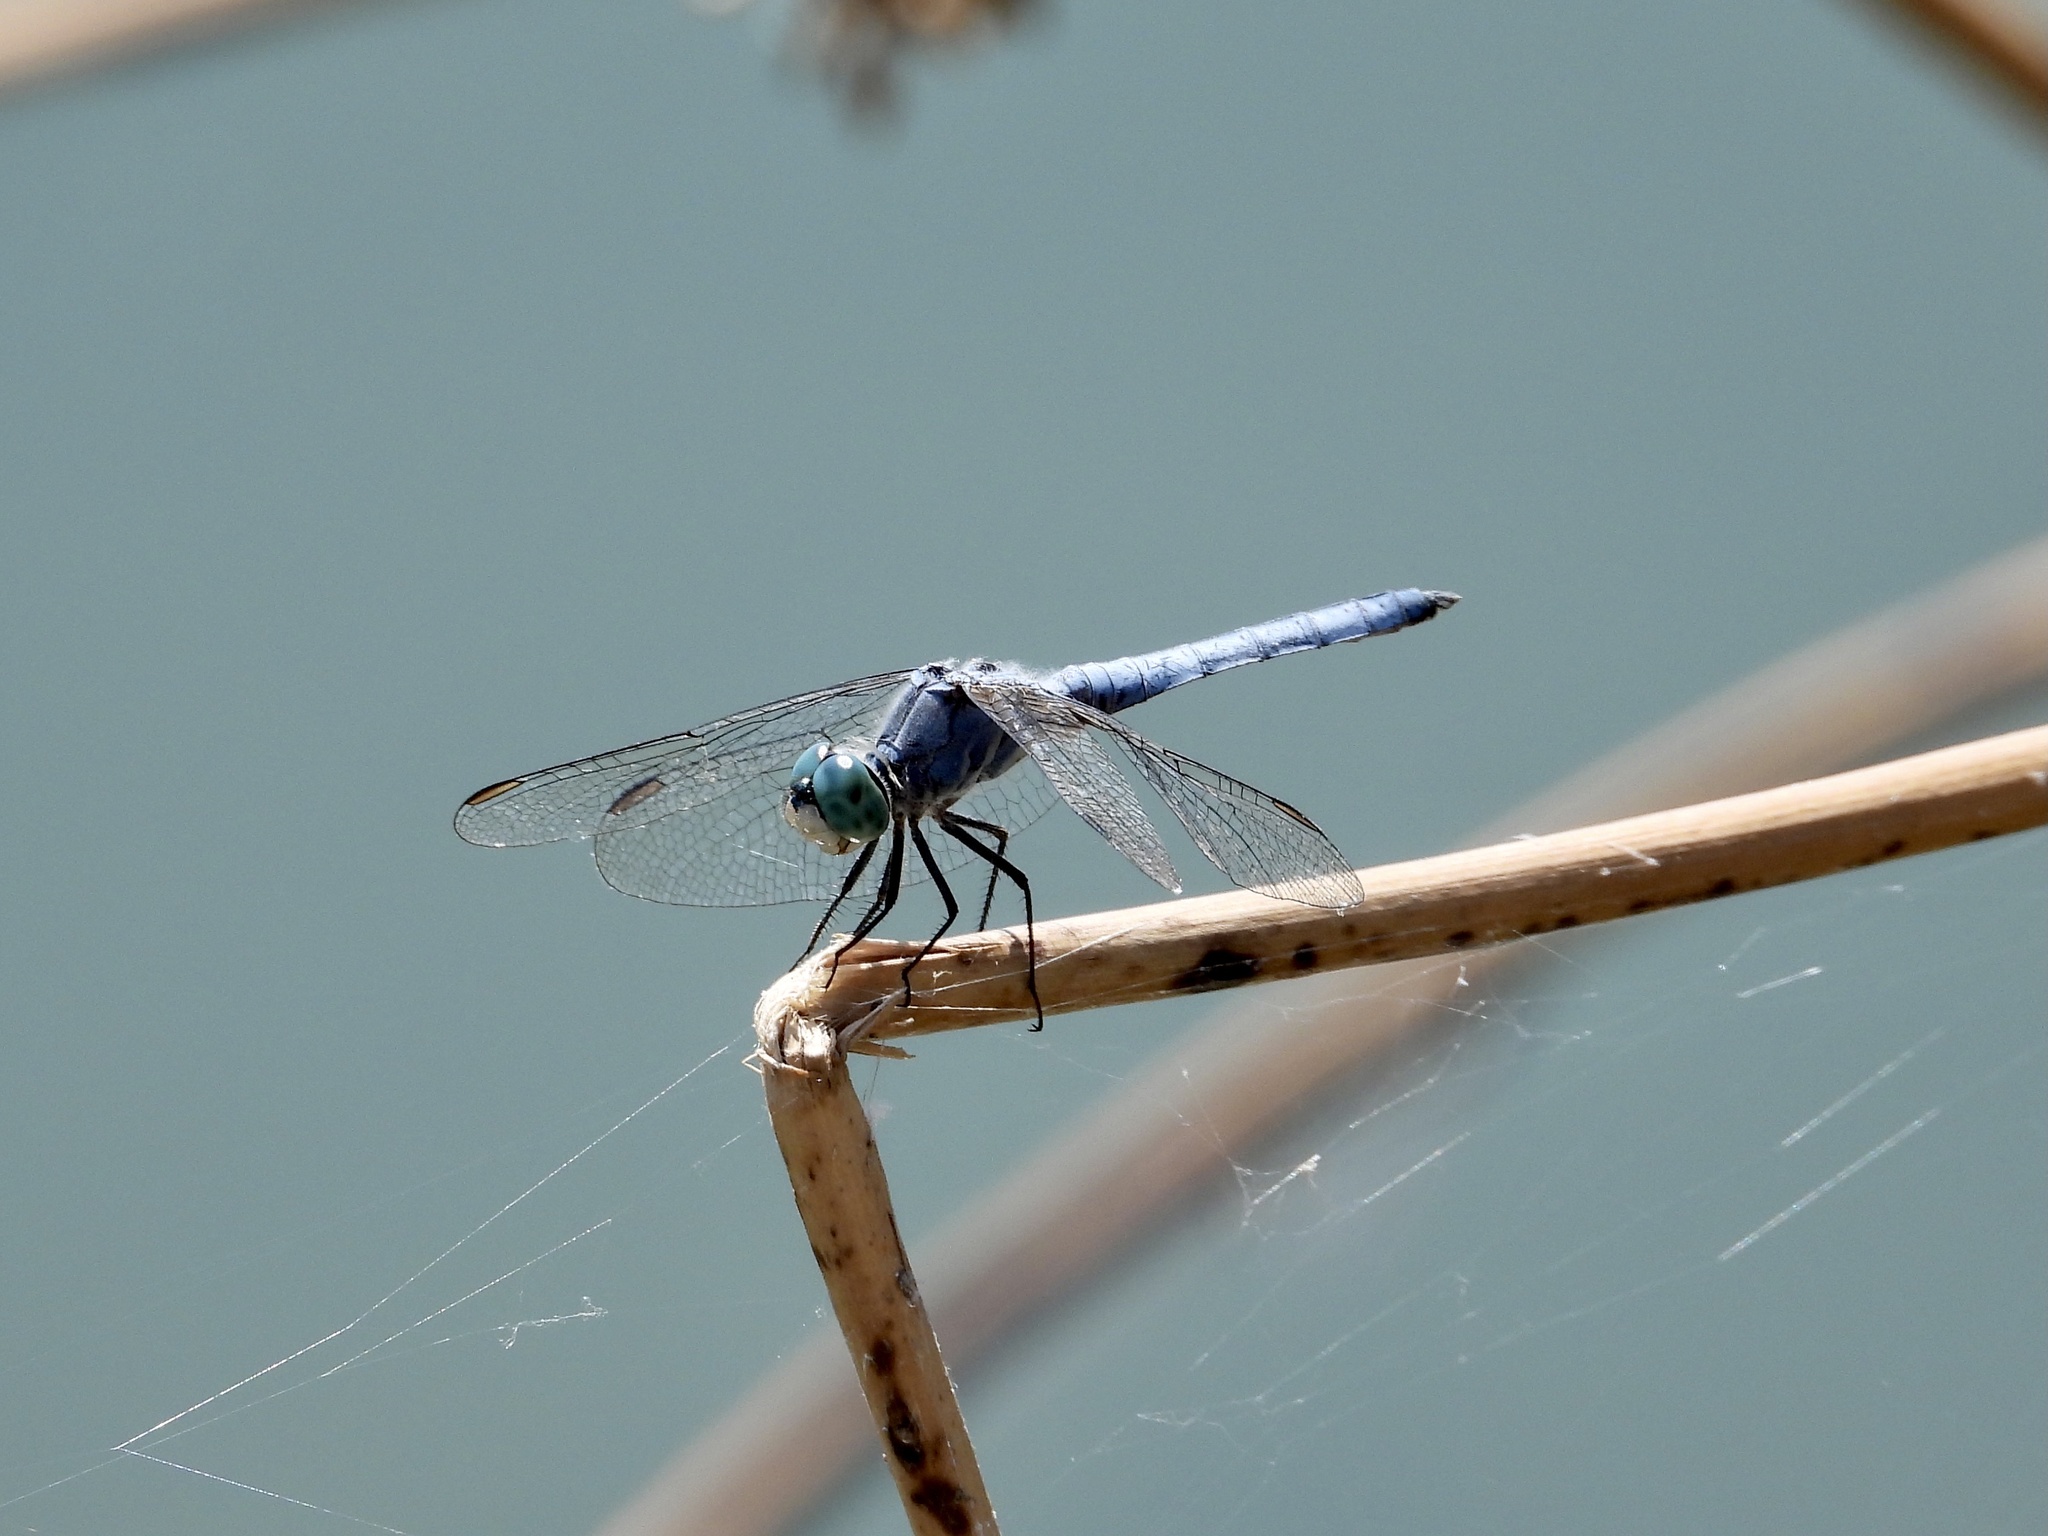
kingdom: Animalia
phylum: Arthropoda
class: Insecta
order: Odonata
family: Libellulidae
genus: Pachydiplax
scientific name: Pachydiplax longipennis
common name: Blue dasher
